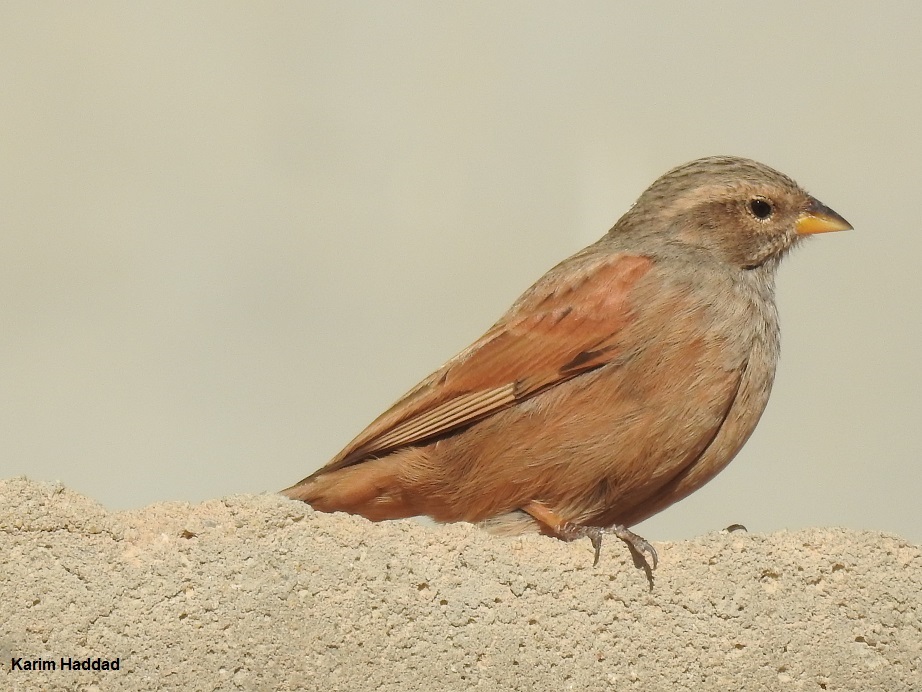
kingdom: Animalia
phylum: Chordata
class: Aves
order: Passeriformes
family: Emberizidae
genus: Emberiza
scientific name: Emberiza sahari
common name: House bunting
